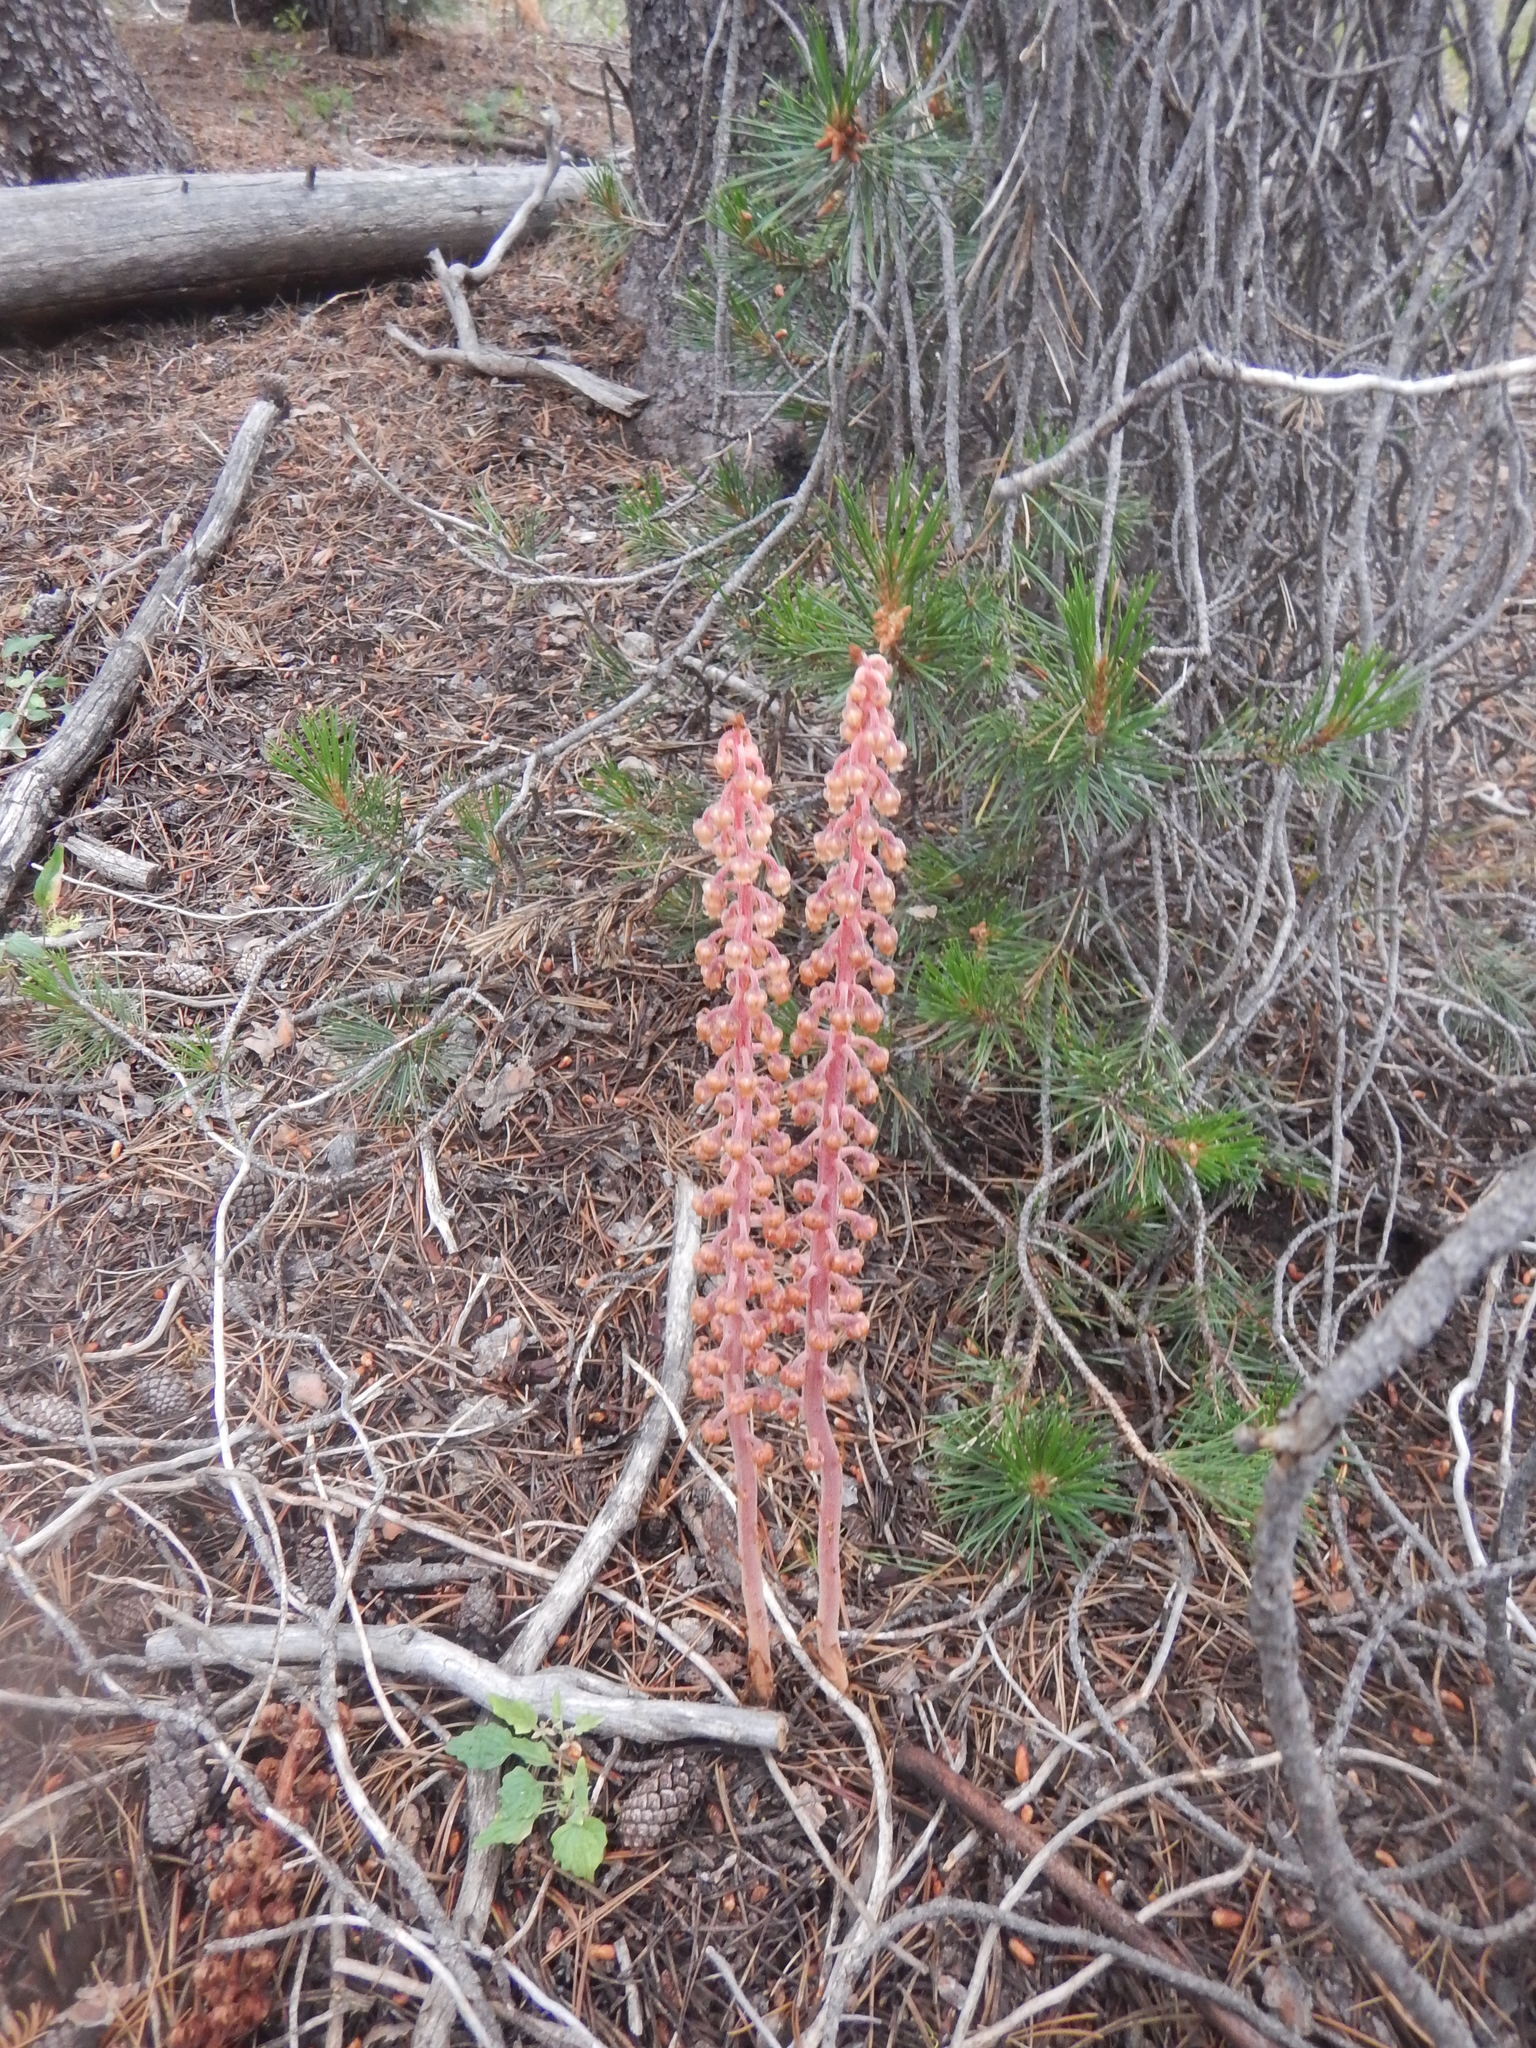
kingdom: Plantae
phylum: Tracheophyta
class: Magnoliopsida
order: Ericales
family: Ericaceae
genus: Pterospora
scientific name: Pterospora andromedea
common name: Giant bird's-nest
